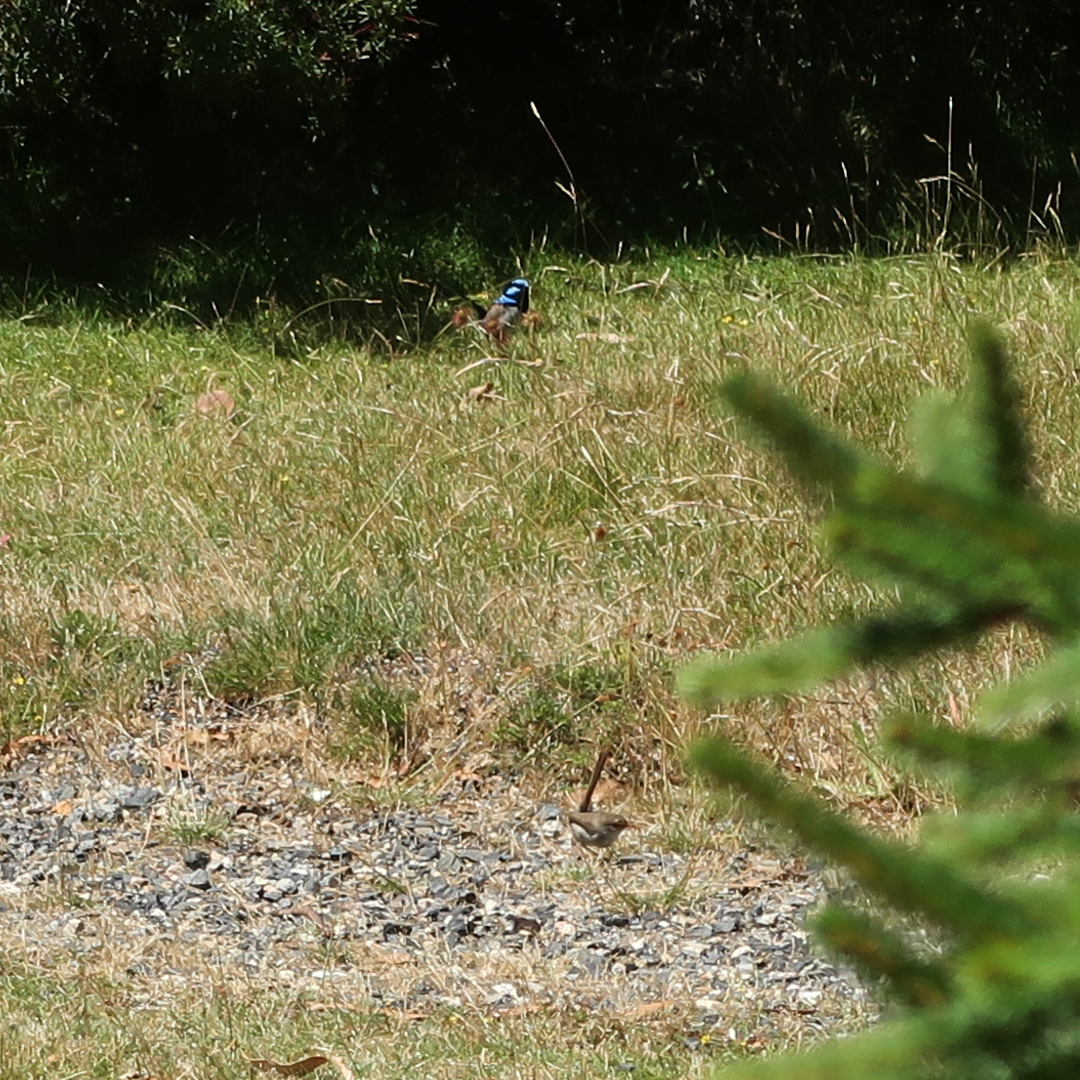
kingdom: Animalia
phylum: Chordata
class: Aves
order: Passeriformes
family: Maluridae
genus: Malurus
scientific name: Malurus cyaneus
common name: Superb fairywren
